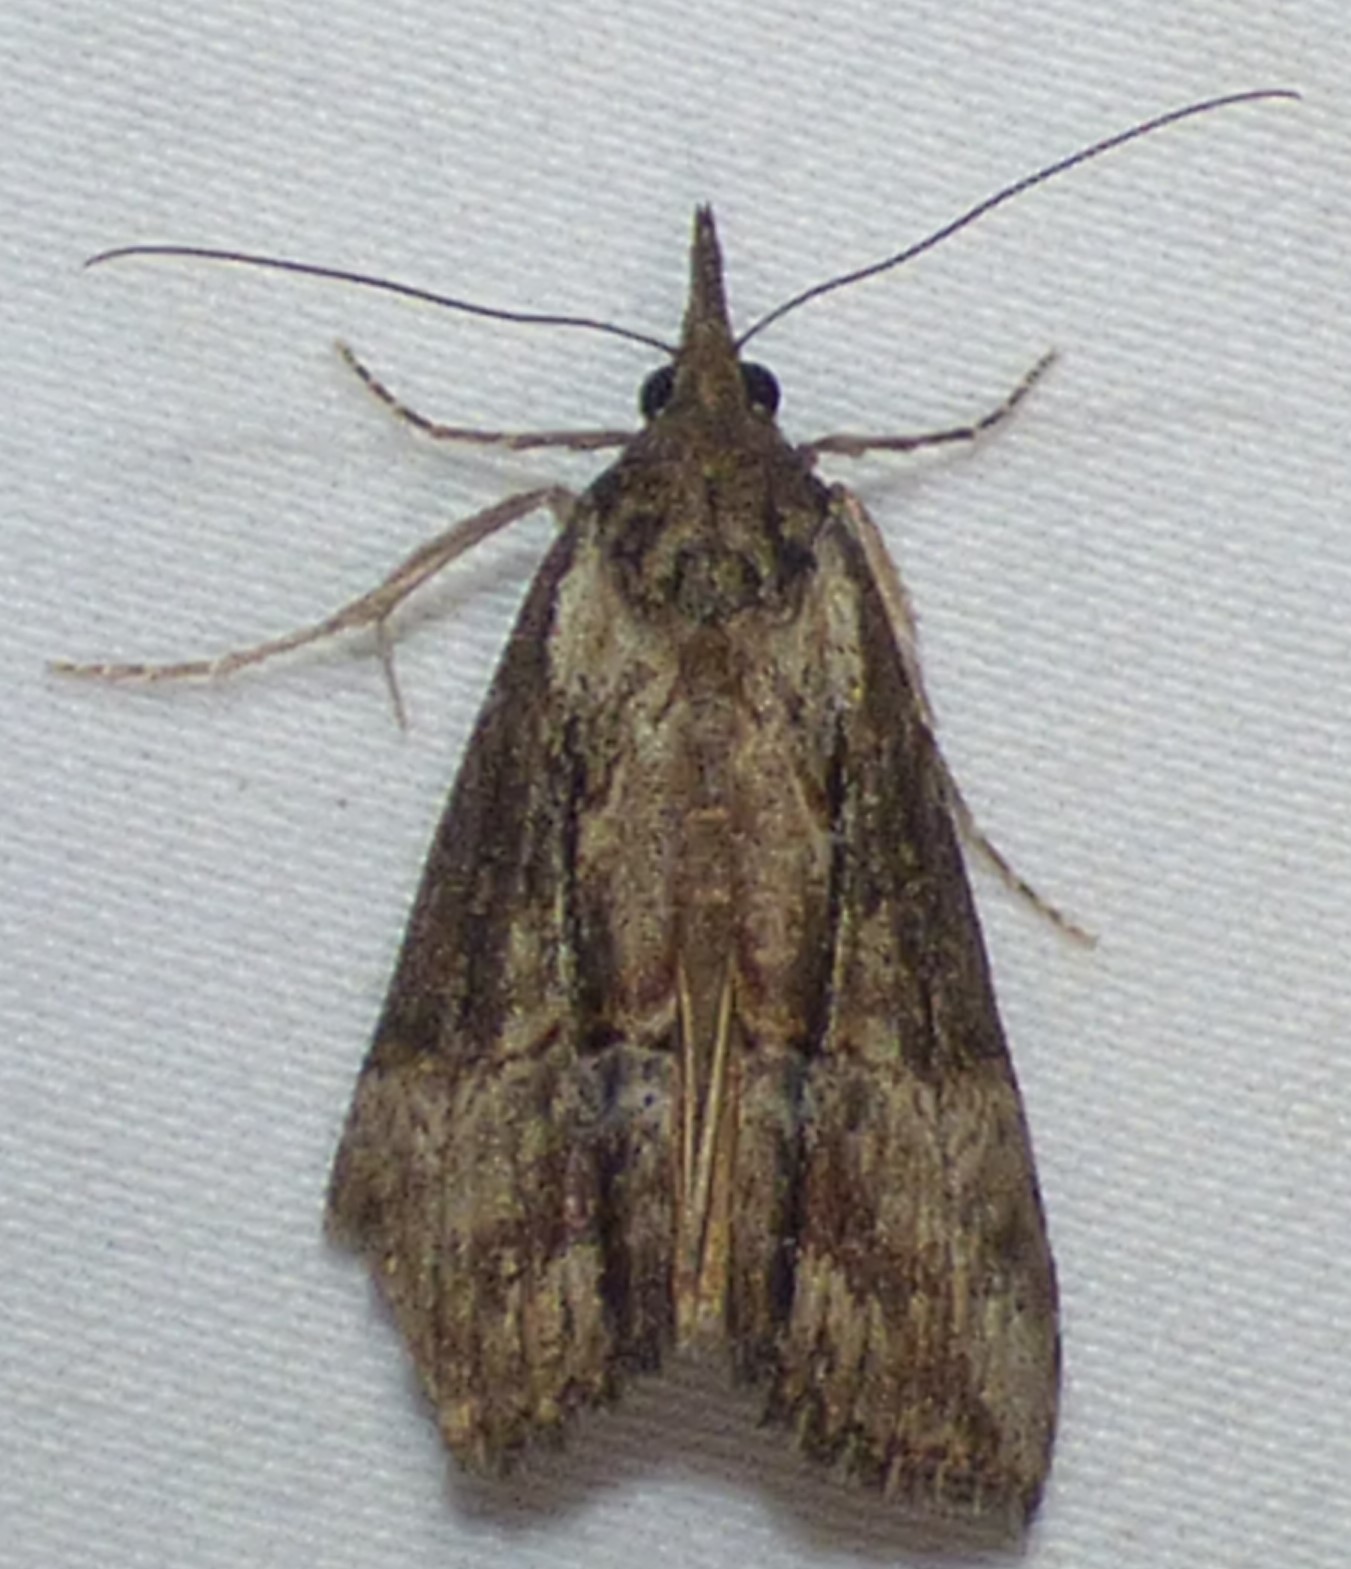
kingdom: Animalia
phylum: Arthropoda
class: Insecta
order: Lepidoptera
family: Erebidae
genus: Hypena
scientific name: Hypena scabra
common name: Green cloverworm
